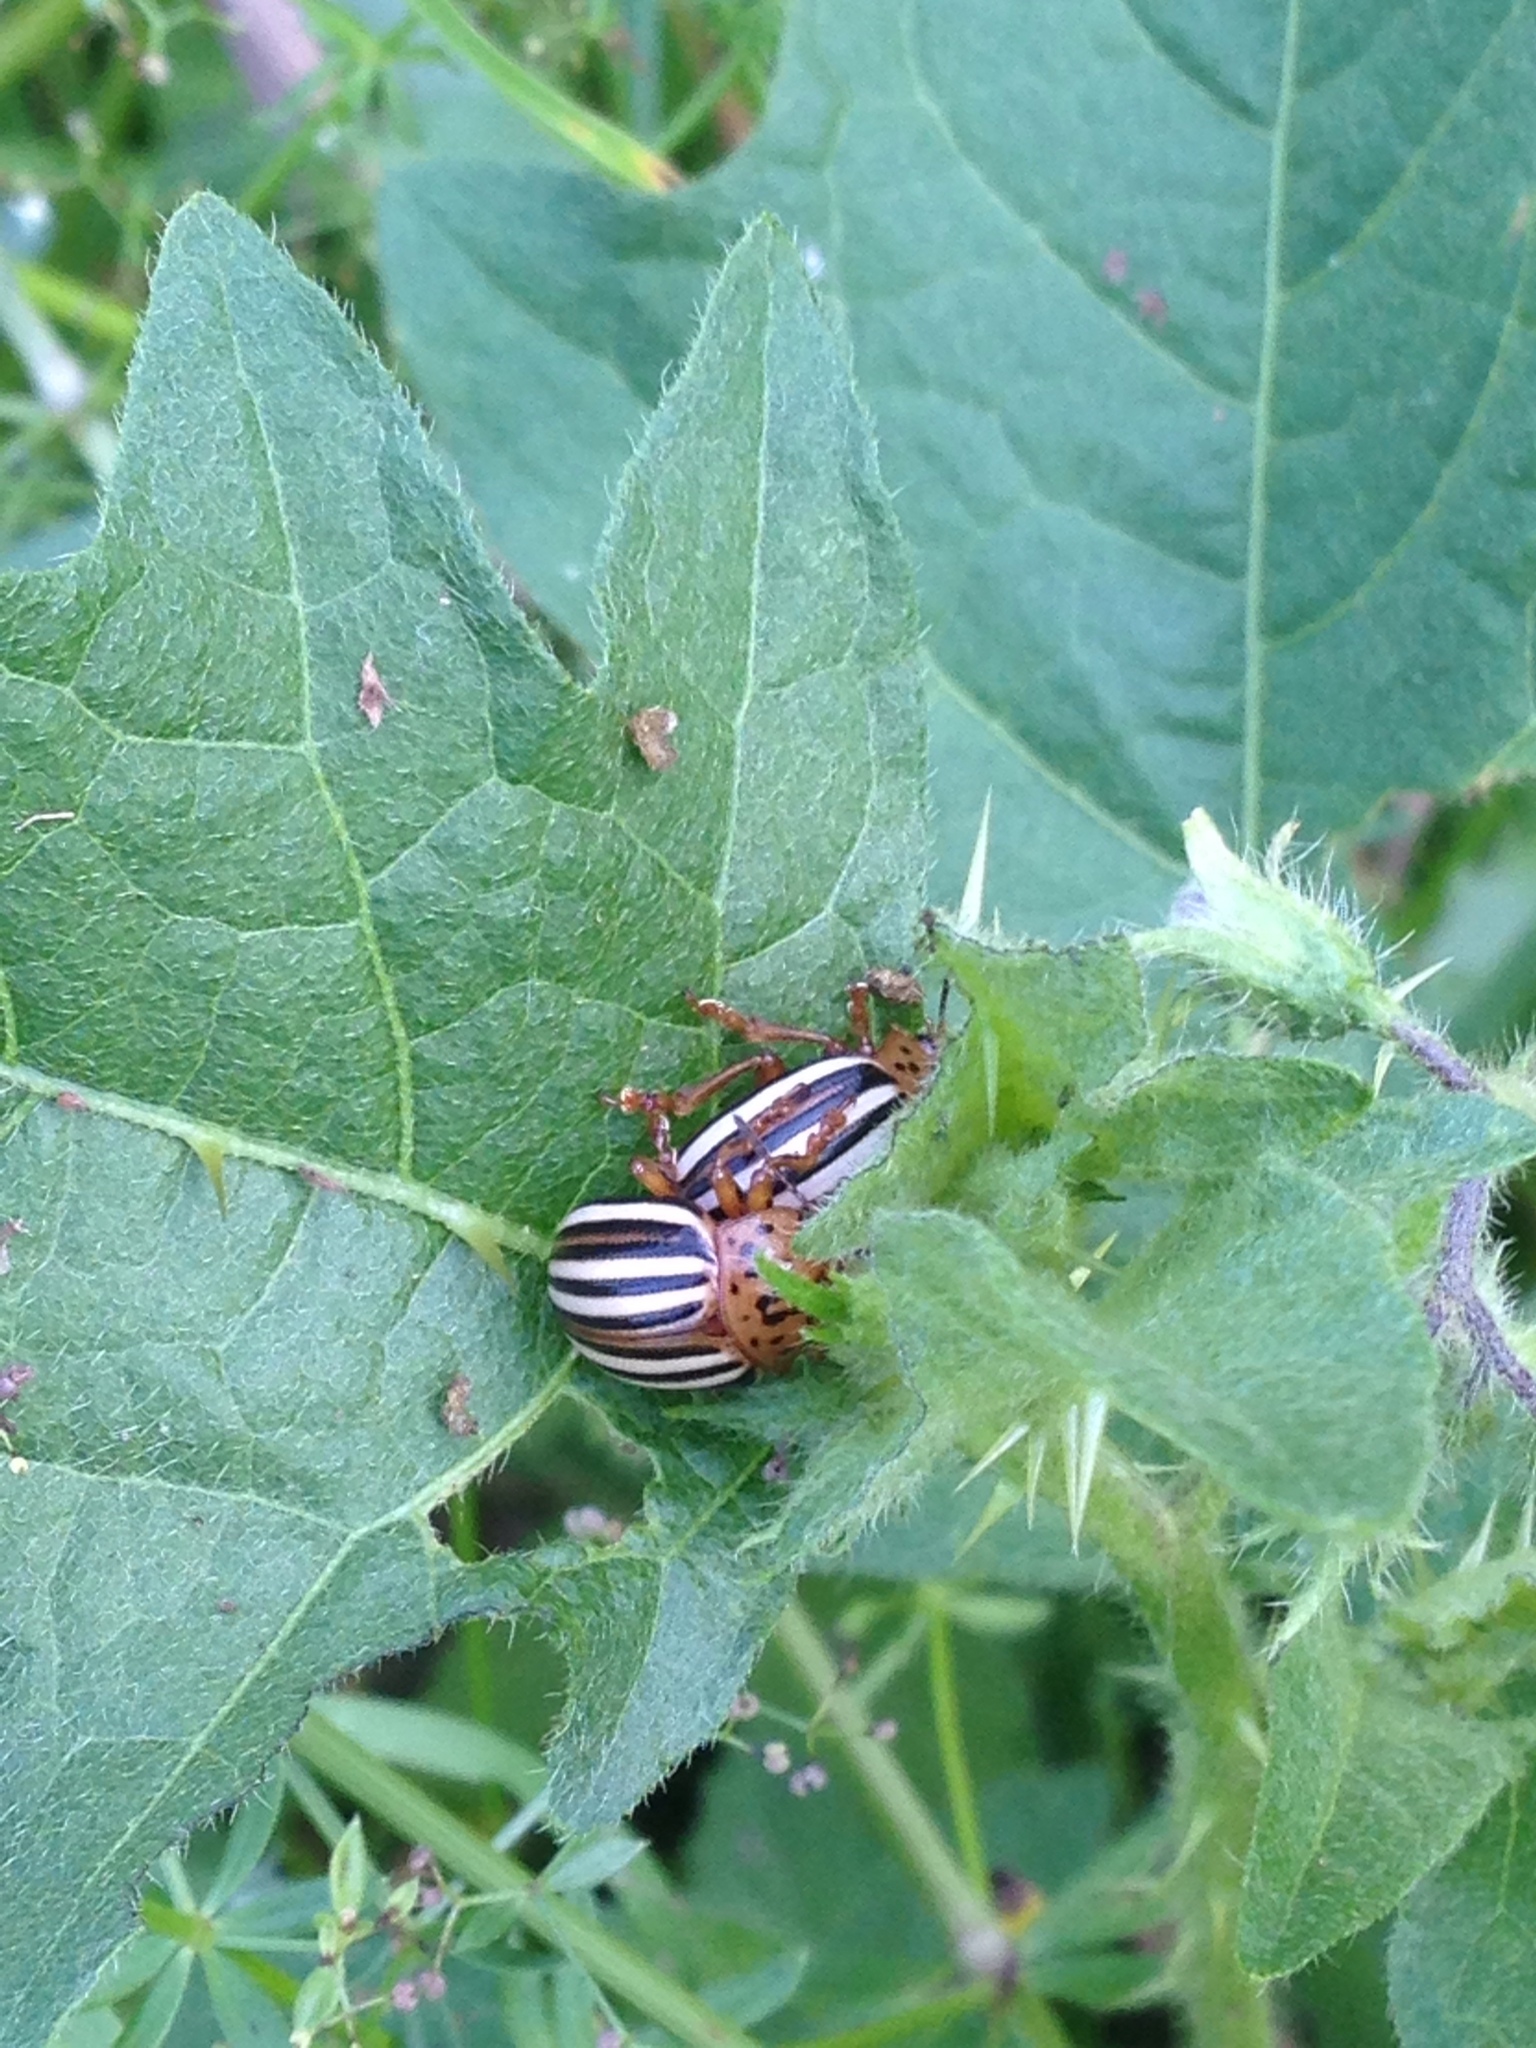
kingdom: Animalia
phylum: Arthropoda
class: Insecta
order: Coleoptera
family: Chrysomelidae
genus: Leptinotarsa
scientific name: Leptinotarsa juncta
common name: False potato beetle
